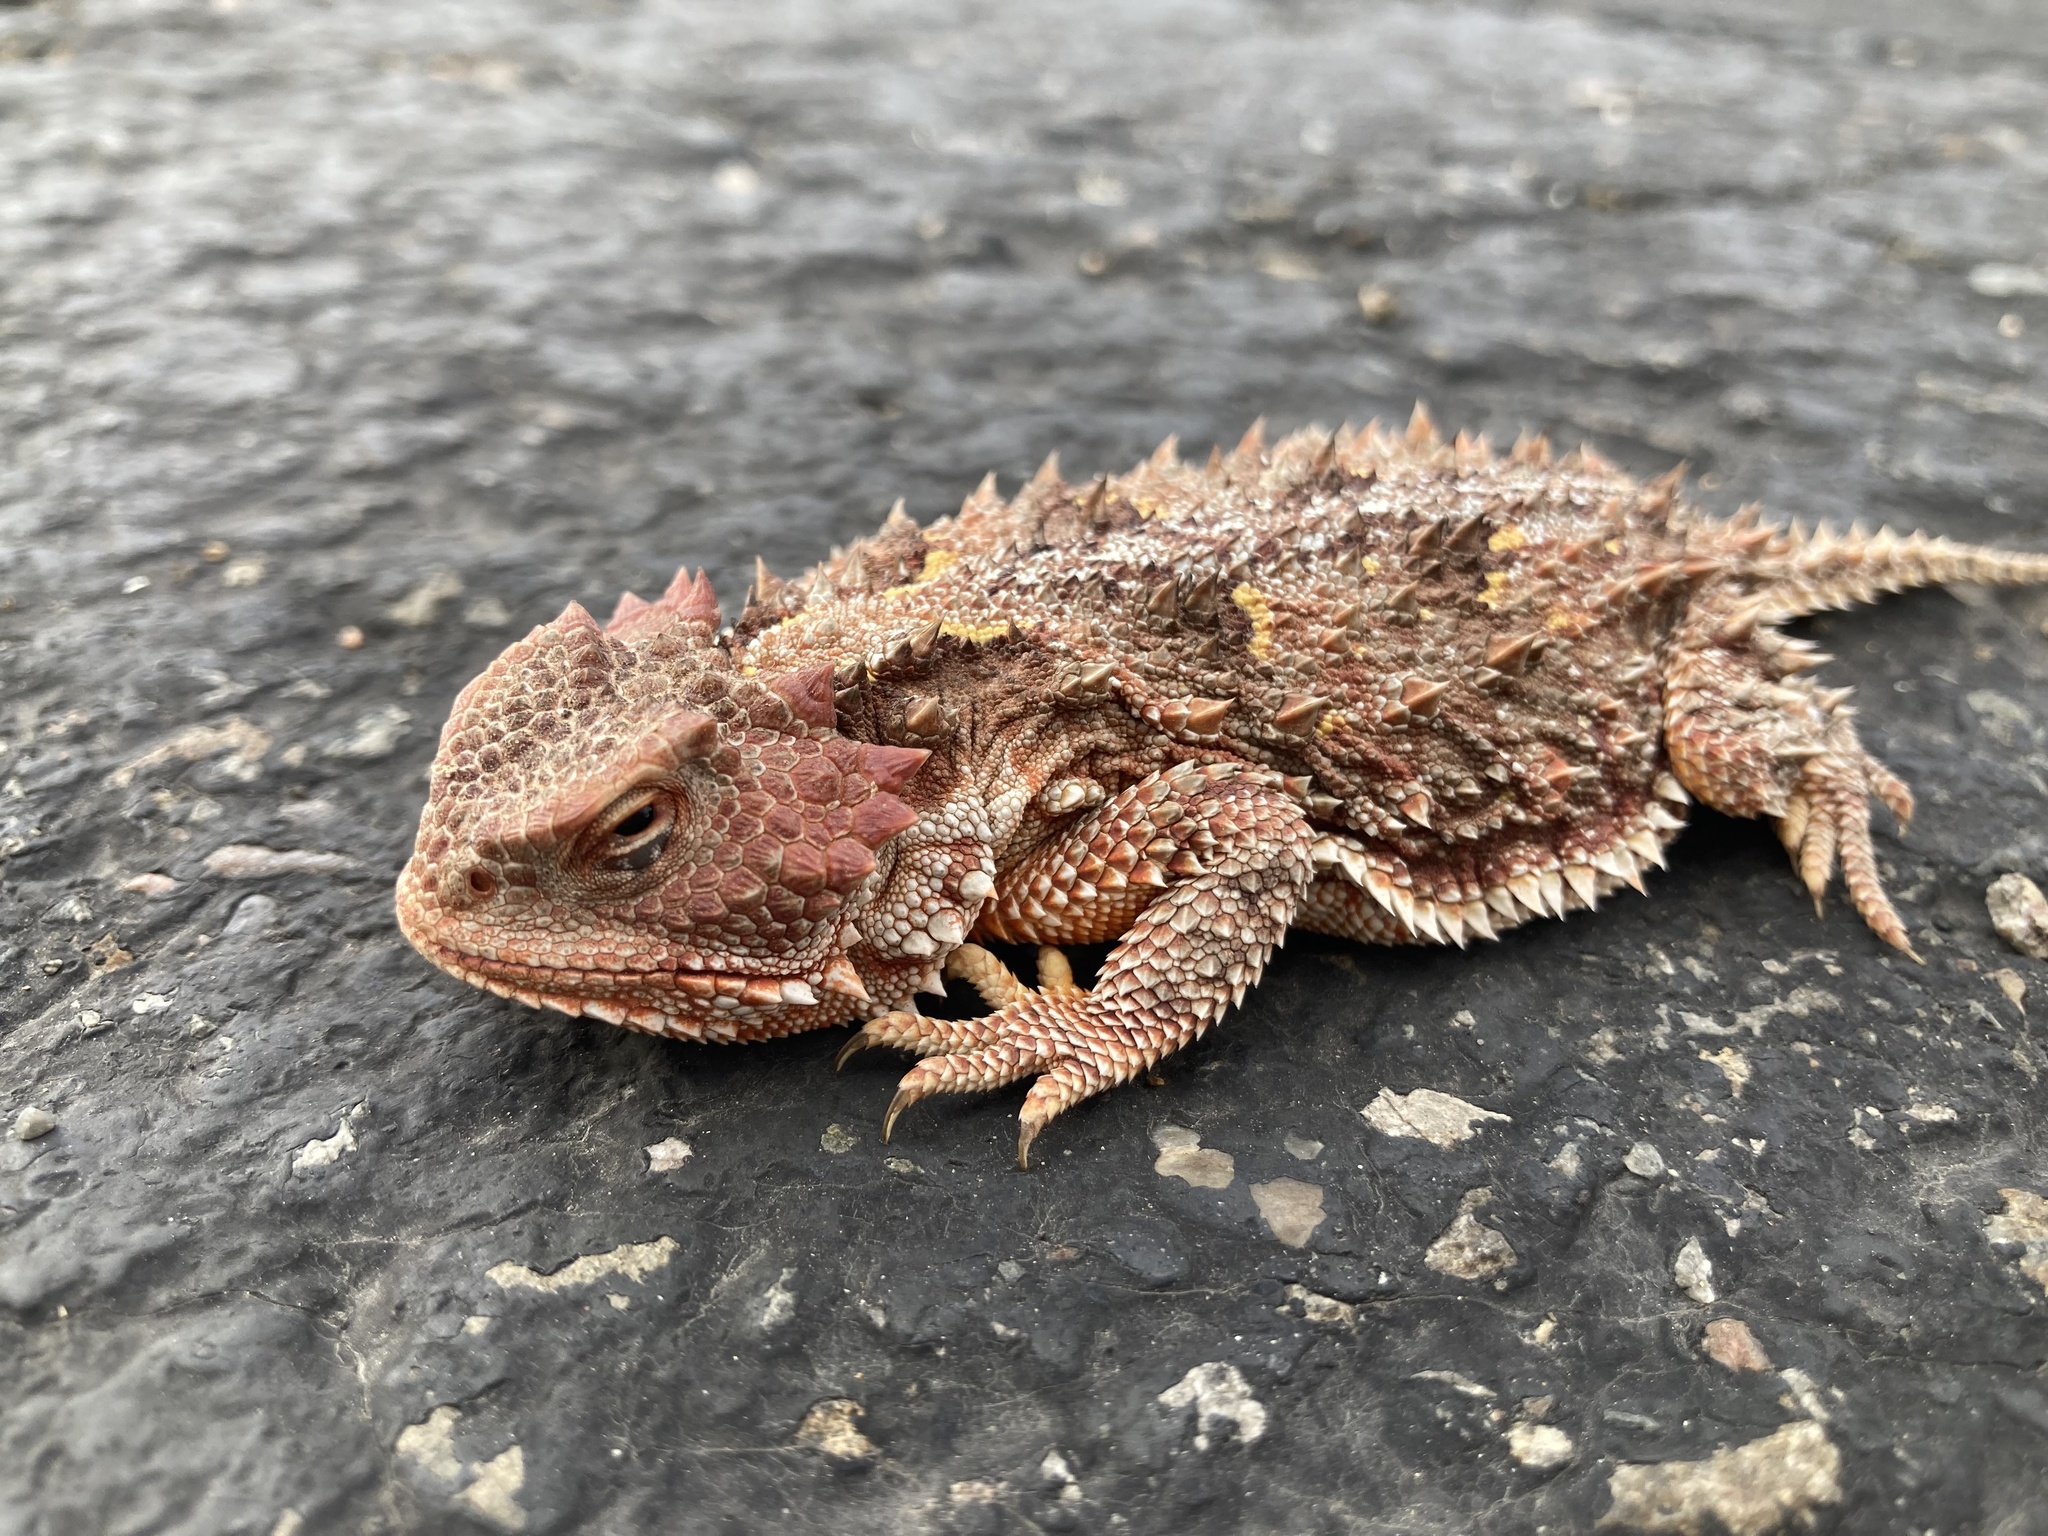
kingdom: Animalia
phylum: Chordata
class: Squamata
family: Phrynosomatidae
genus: Phrynosoma
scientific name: Phrynosoma hernandesi
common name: Greater short-horned lizard
